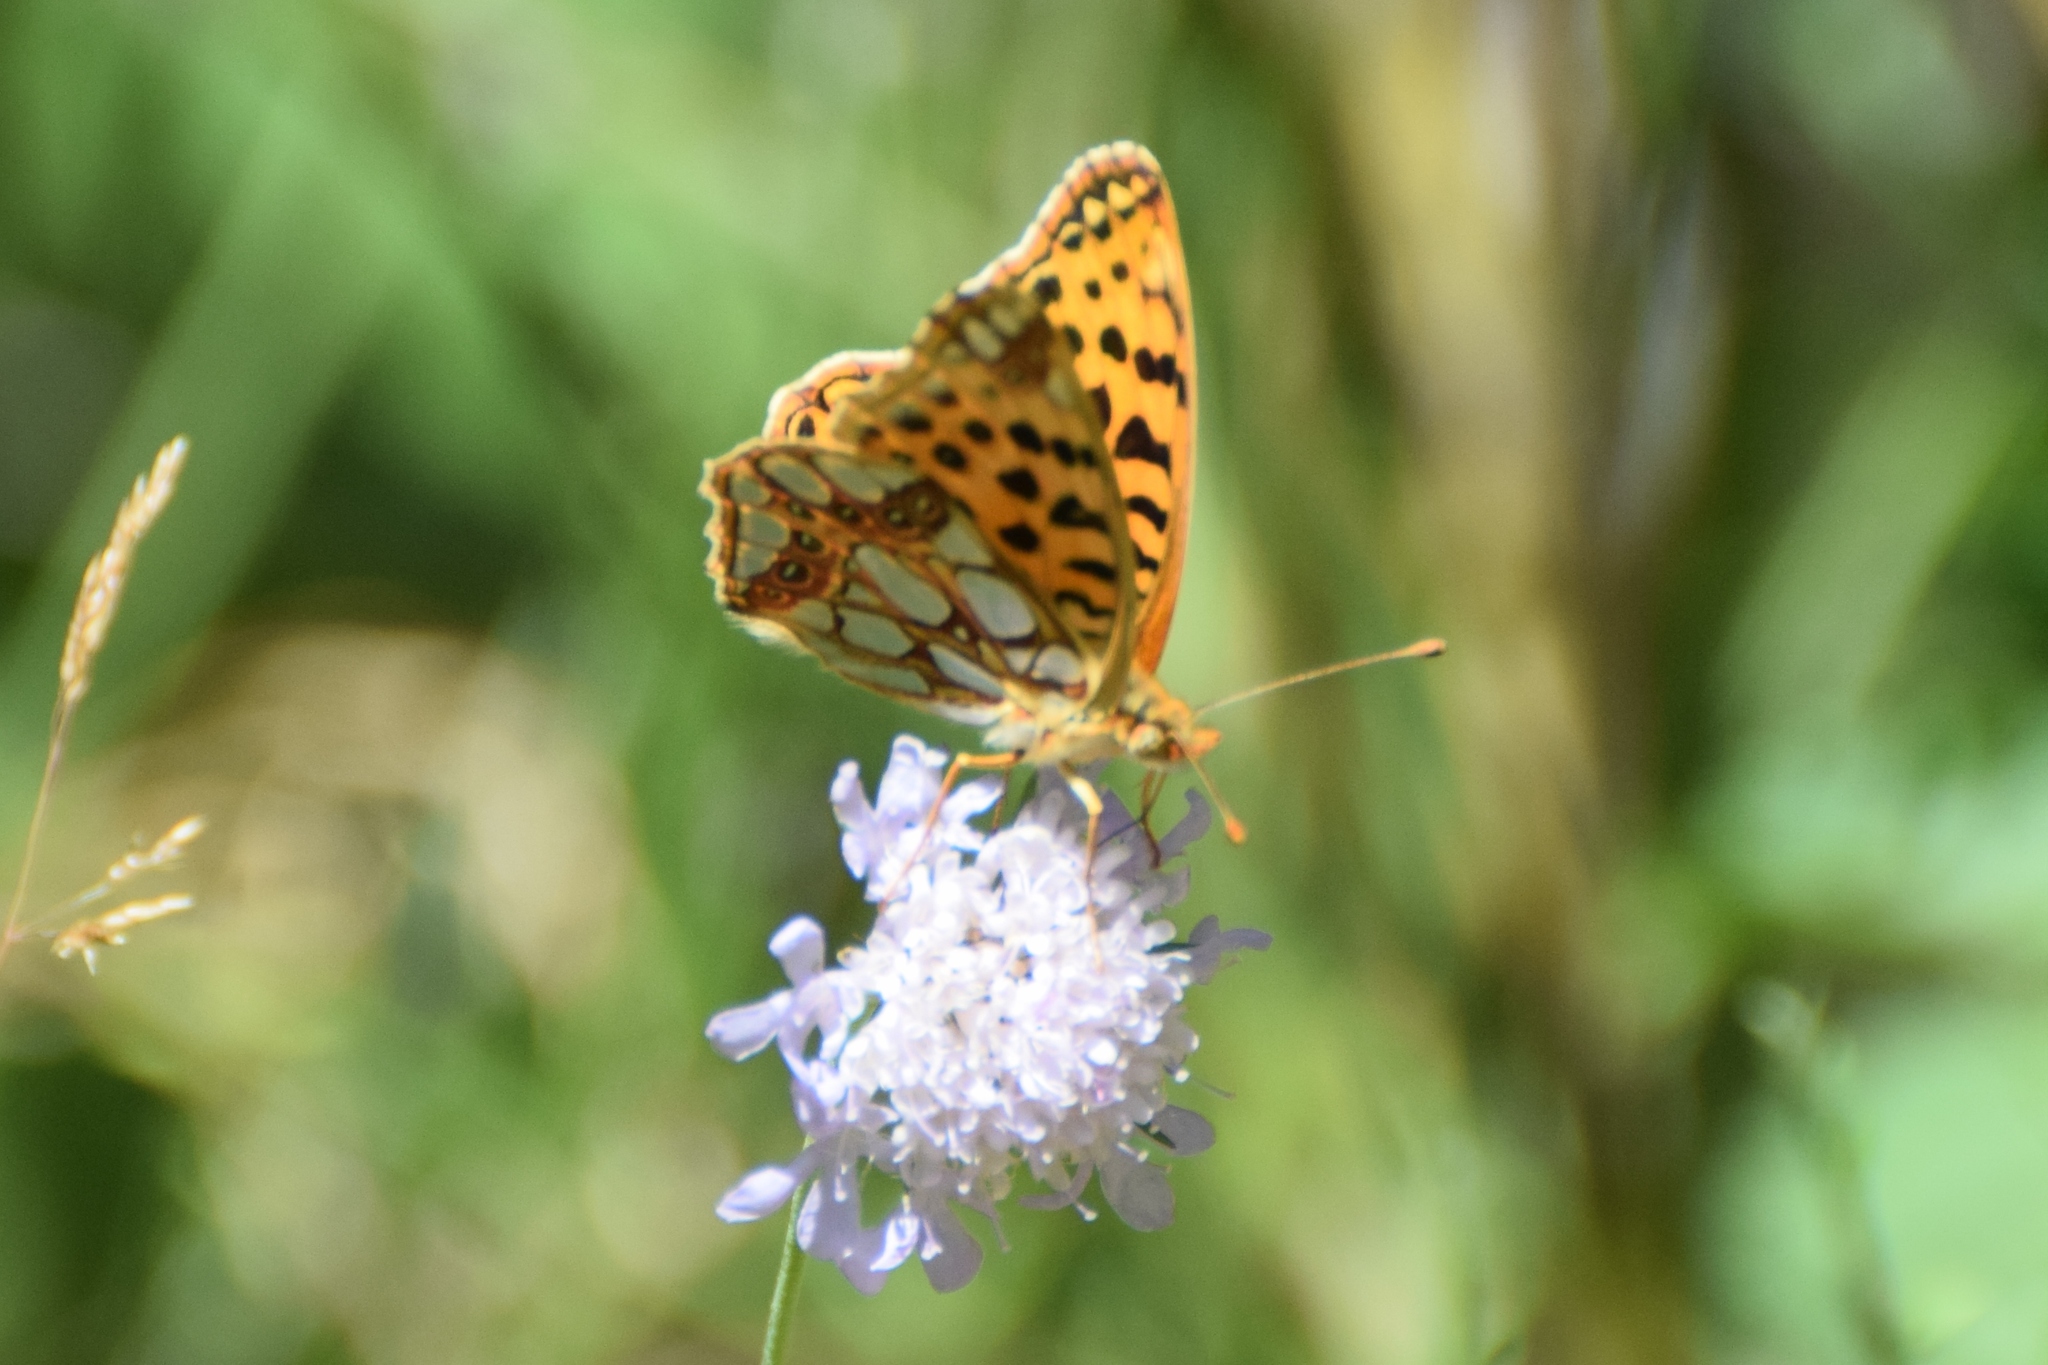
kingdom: Animalia
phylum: Arthropoda
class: Insecta
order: Lepidoptera
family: Nymphalidae
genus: Issoria
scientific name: Issoria lathonia
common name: Queen of spain fritillary
